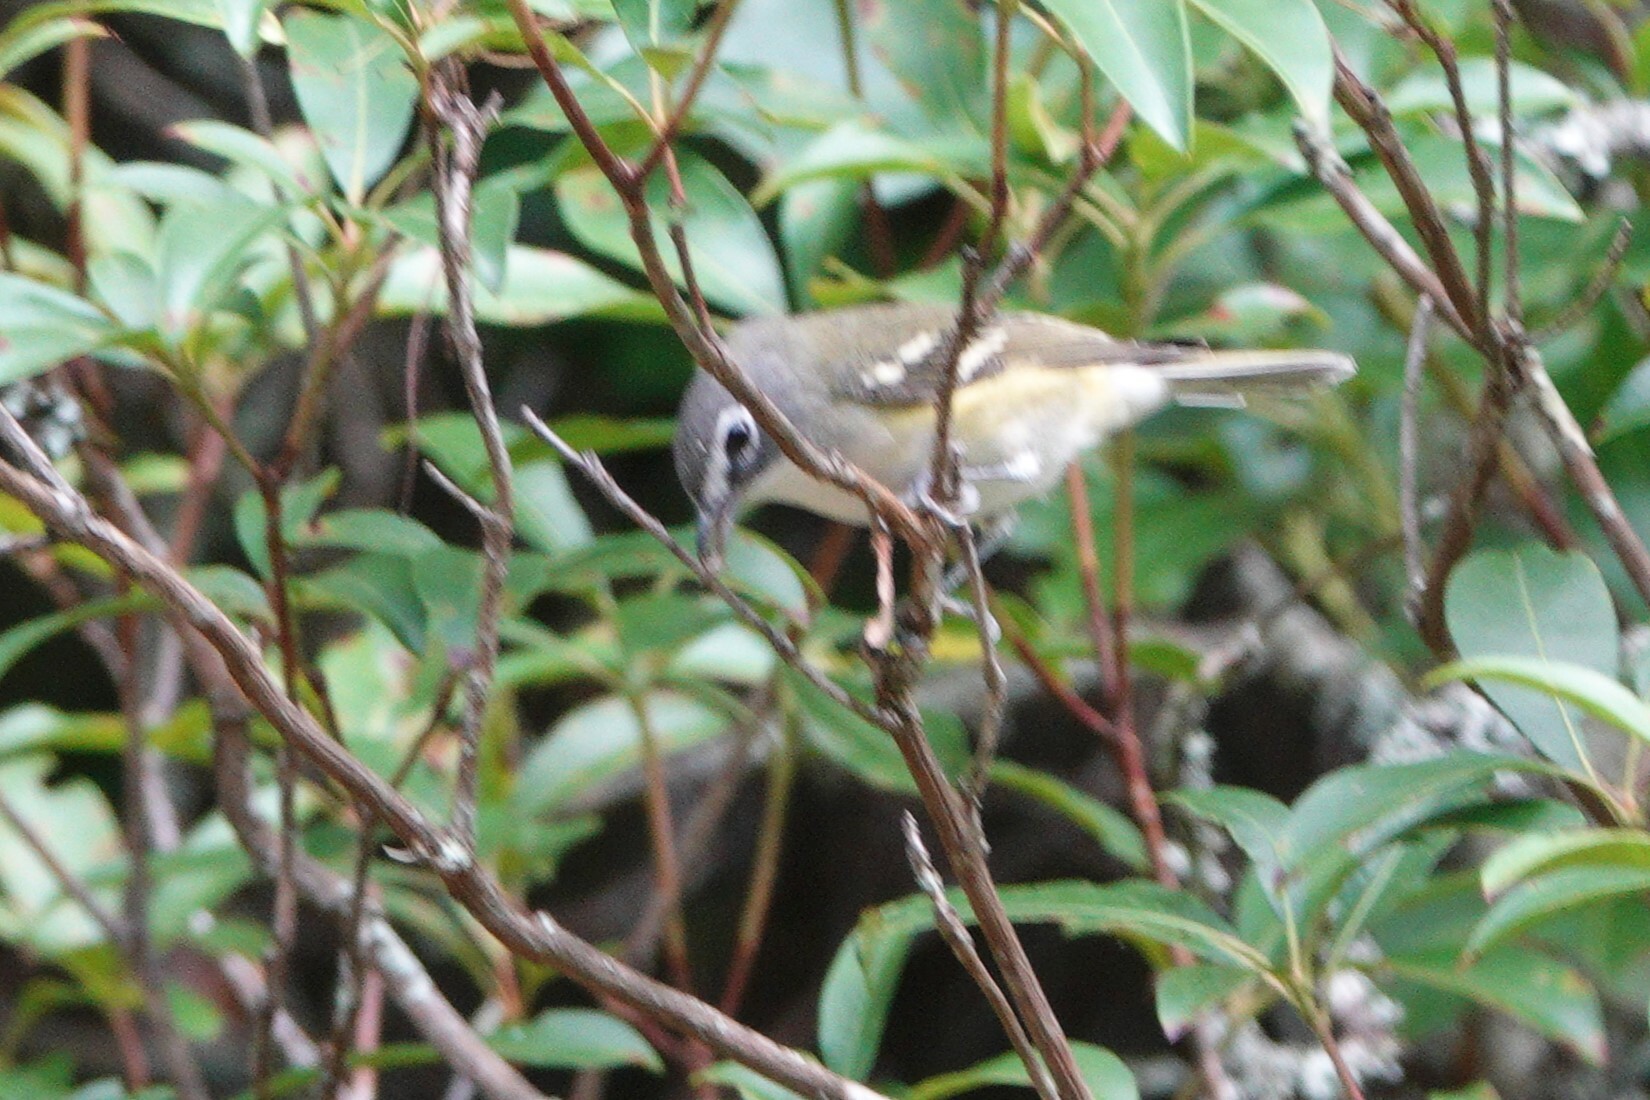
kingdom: Animalia
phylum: Chordata
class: Aves
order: Passeriformes
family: Vireonidae
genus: Vireo
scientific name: Vireo solitarius
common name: Blue-headed vireo
